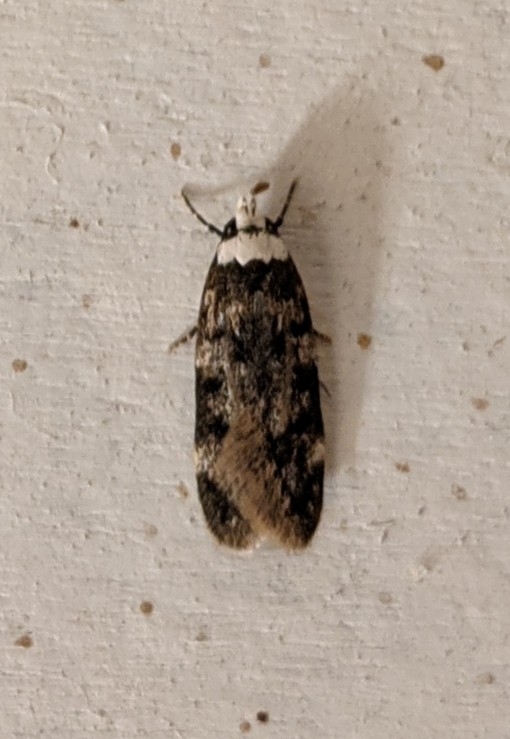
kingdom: Animalia
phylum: Arthropoda
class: Insecta
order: Lepidoptera
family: Oecophoridae
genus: Endrosis
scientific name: Endrosis sarcitrella
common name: White-shouldered house moth
